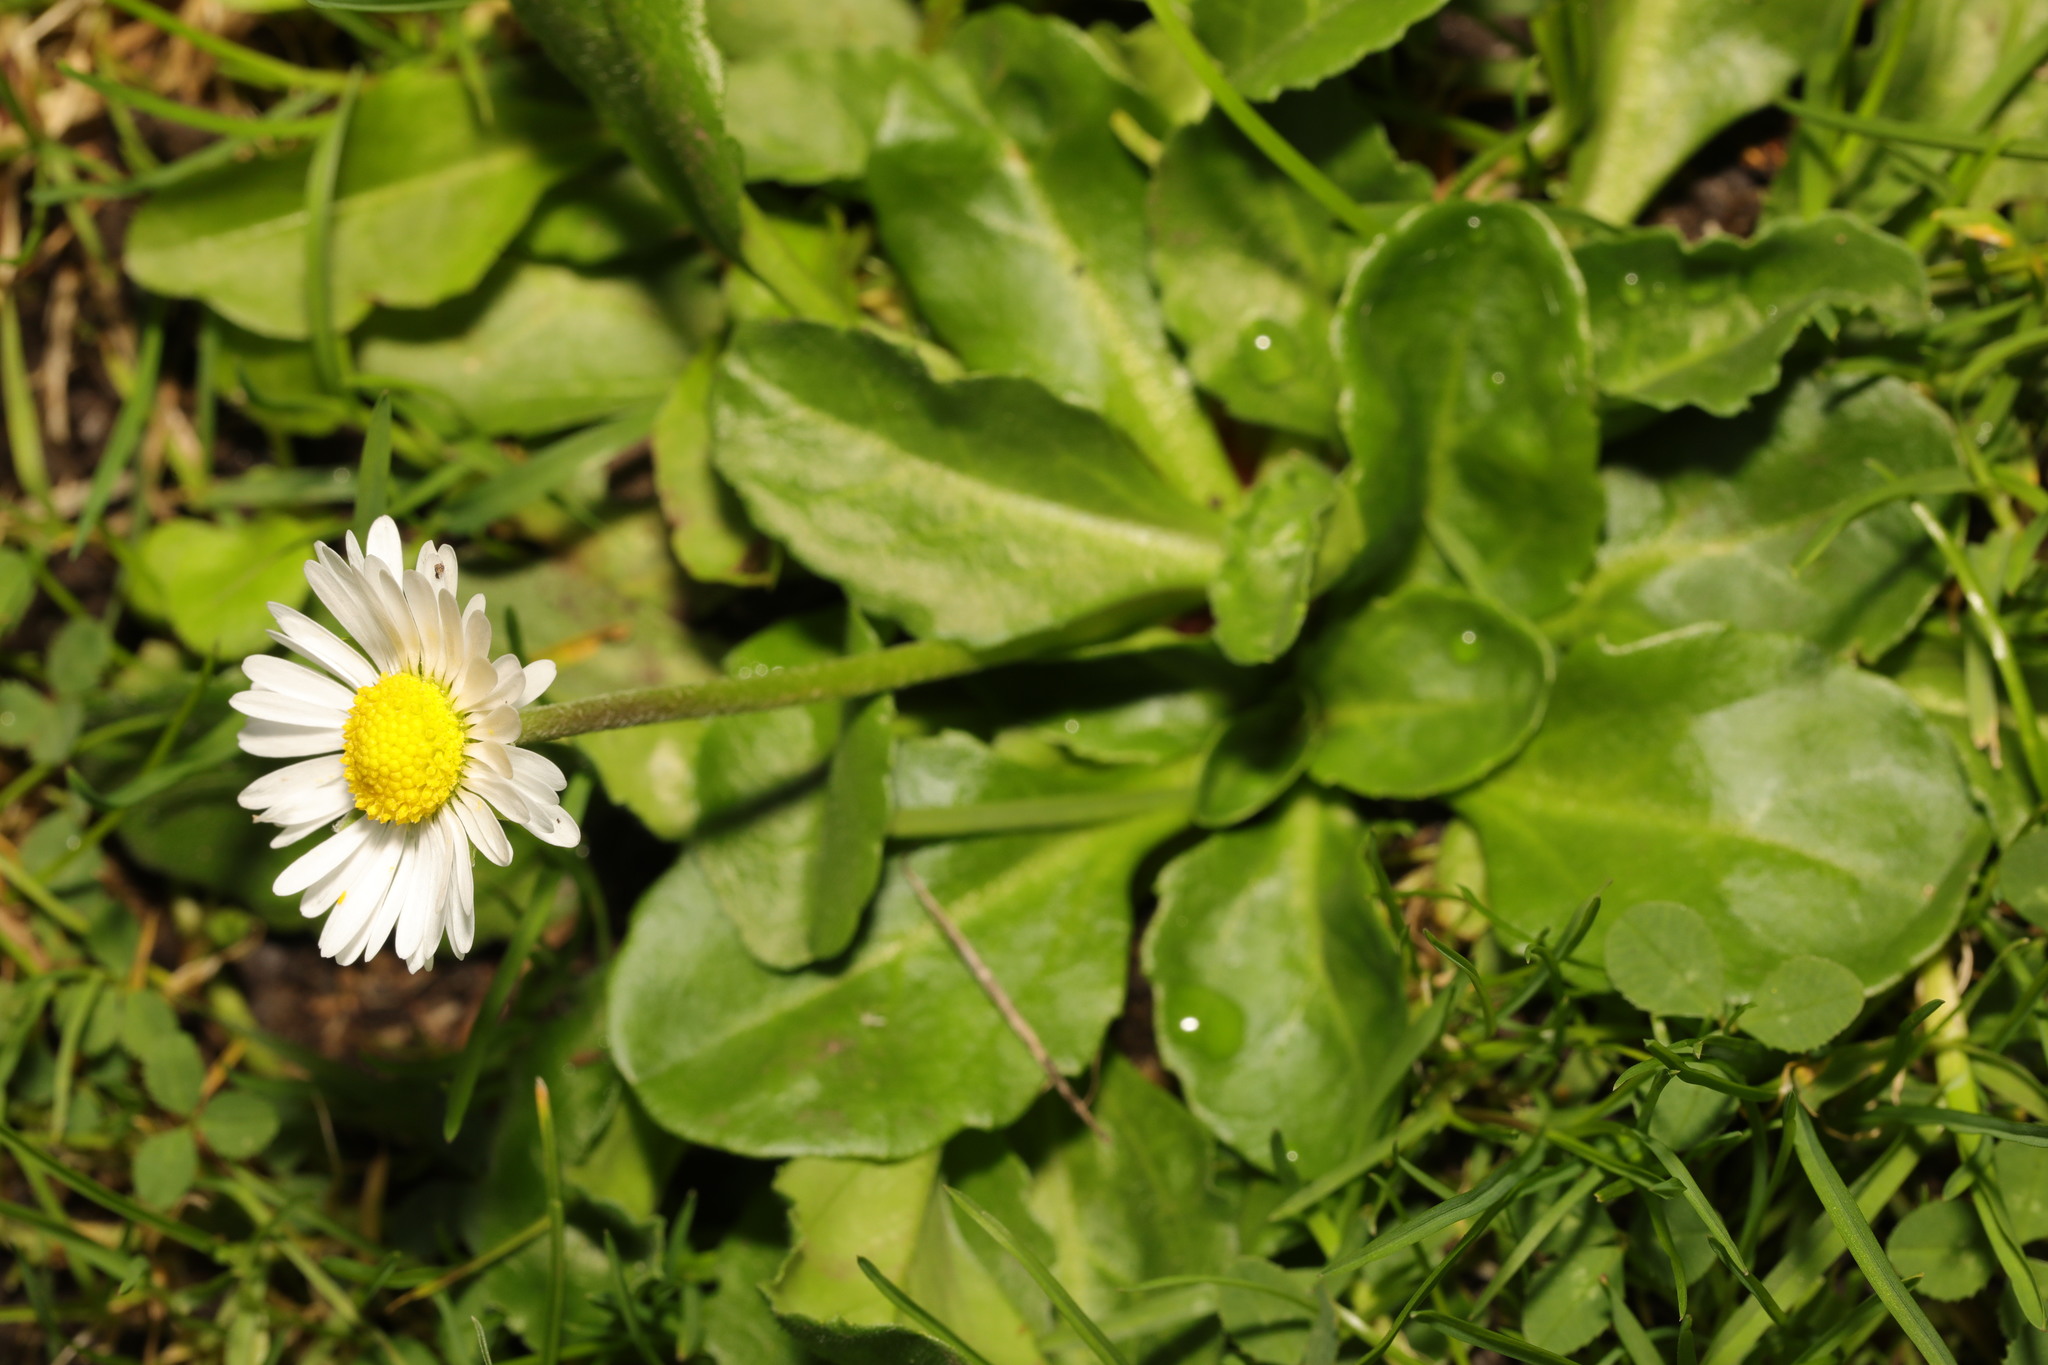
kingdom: Plantae
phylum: Tracheophyta
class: Magnoliopsida
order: Asterales
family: Asteraceae
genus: Bellis
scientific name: Bellis perennis
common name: Lawndaisy
